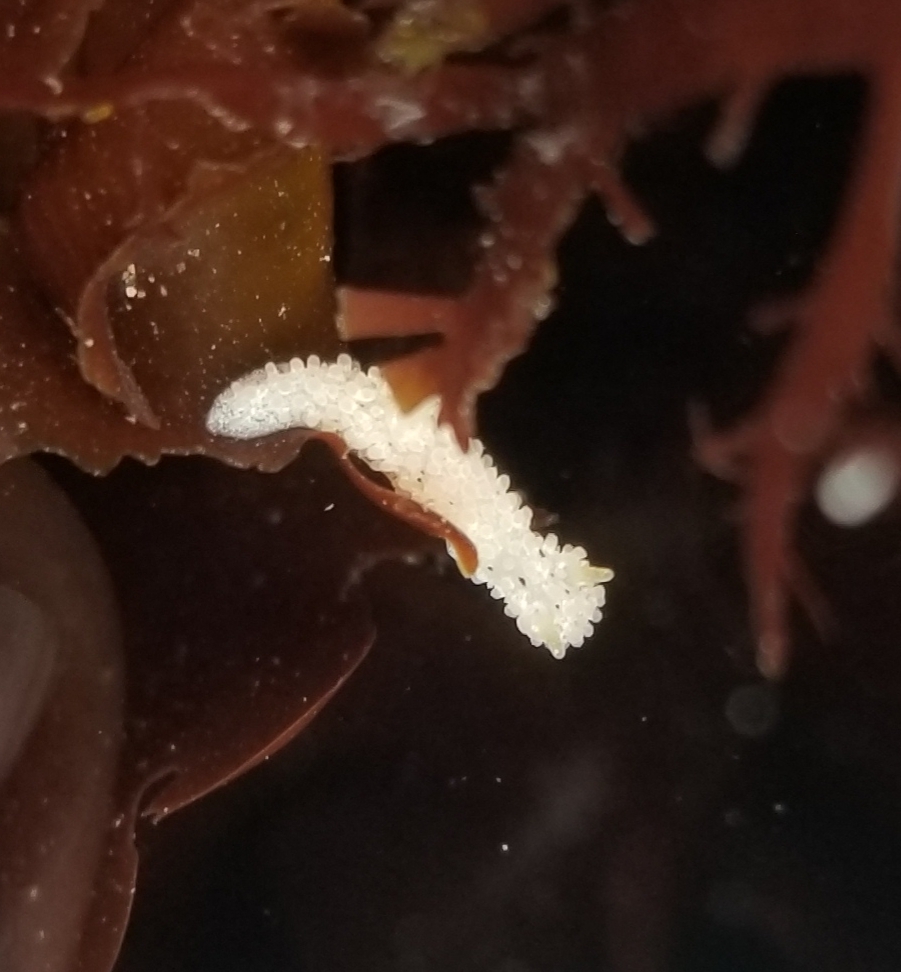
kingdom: Animalia
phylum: Mollusca
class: Gastropoda
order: Nudibranchia
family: Aegiridae
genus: Aegires
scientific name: Aegires albopunctatus
